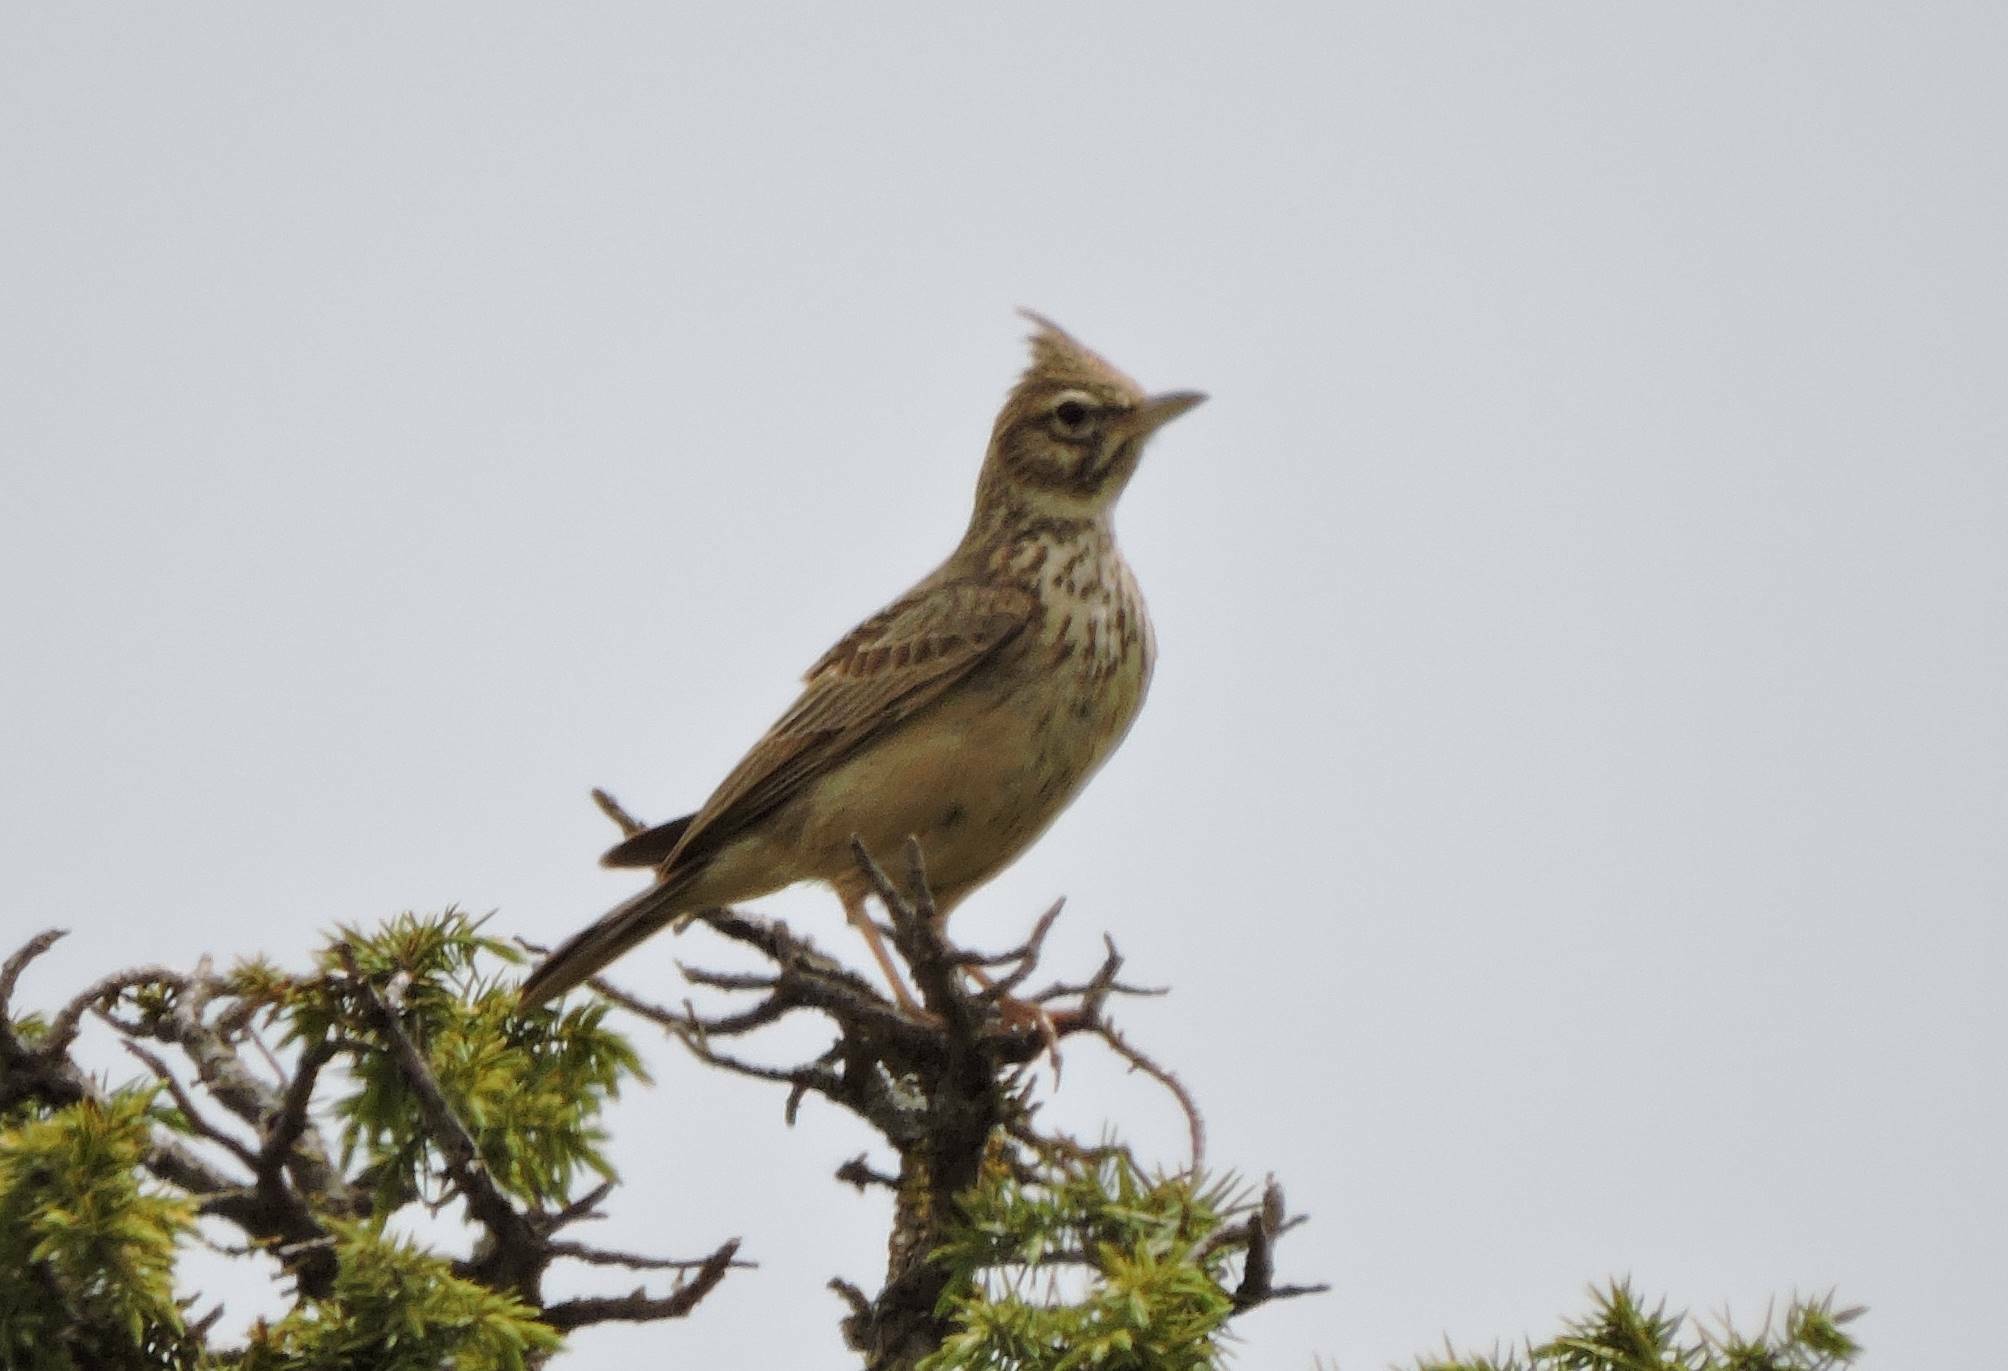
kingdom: Animalia
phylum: Chordata
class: Aves
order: Passeriformes
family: Alaudidae
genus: Galerida
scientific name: Galerida theklae
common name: Thekla lark
